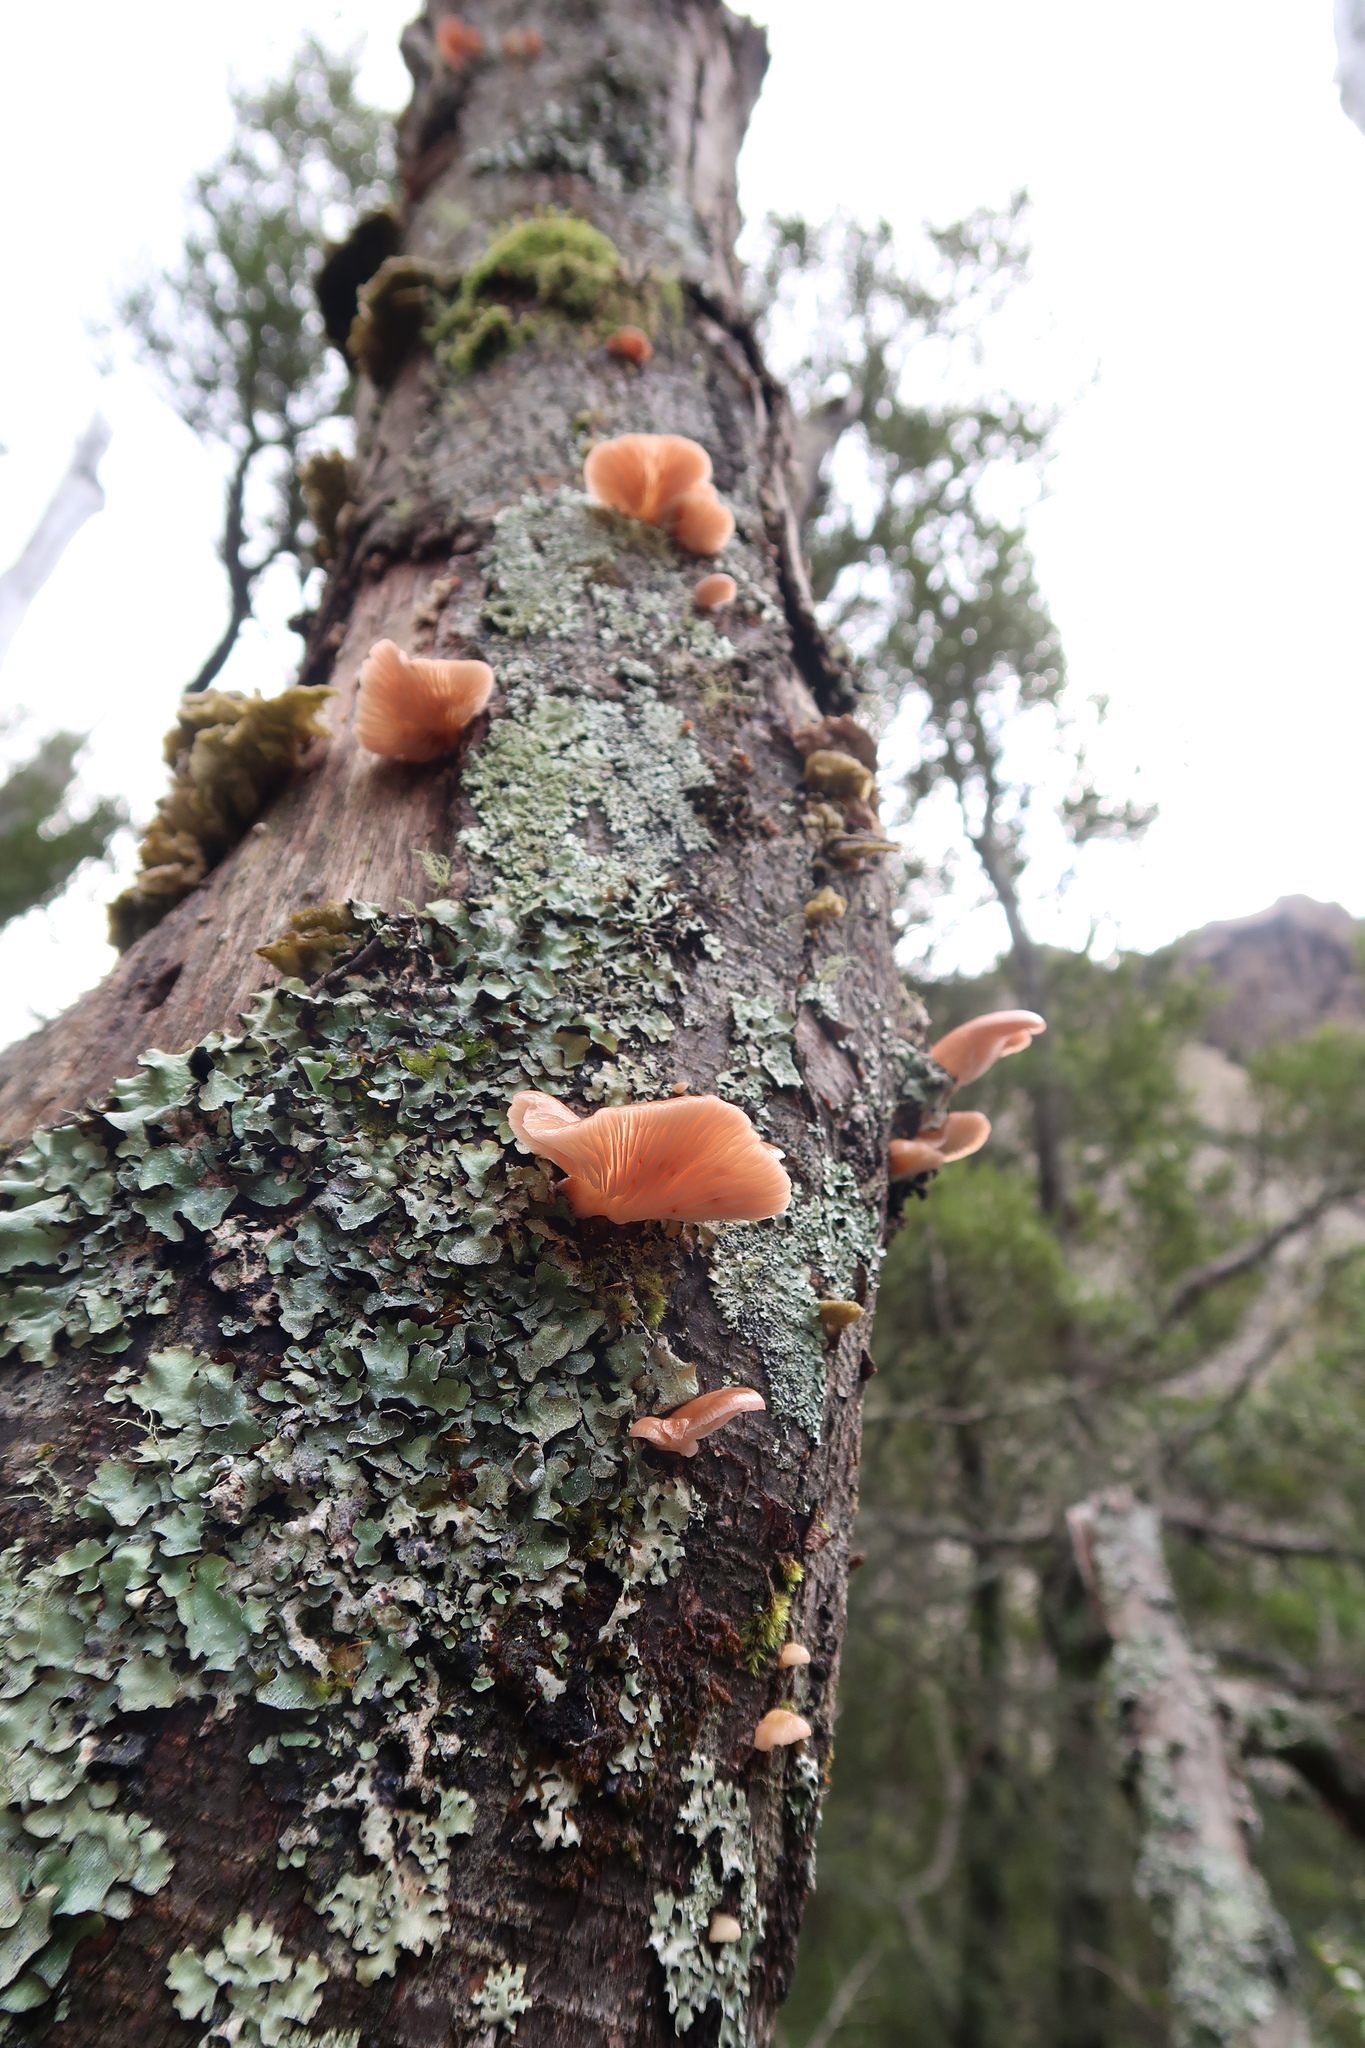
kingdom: Fungi
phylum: Basidiomycota
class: Agaricomycetes
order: Agaricales
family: Mycenaceae
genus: Panellus
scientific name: Panellus longinquus
